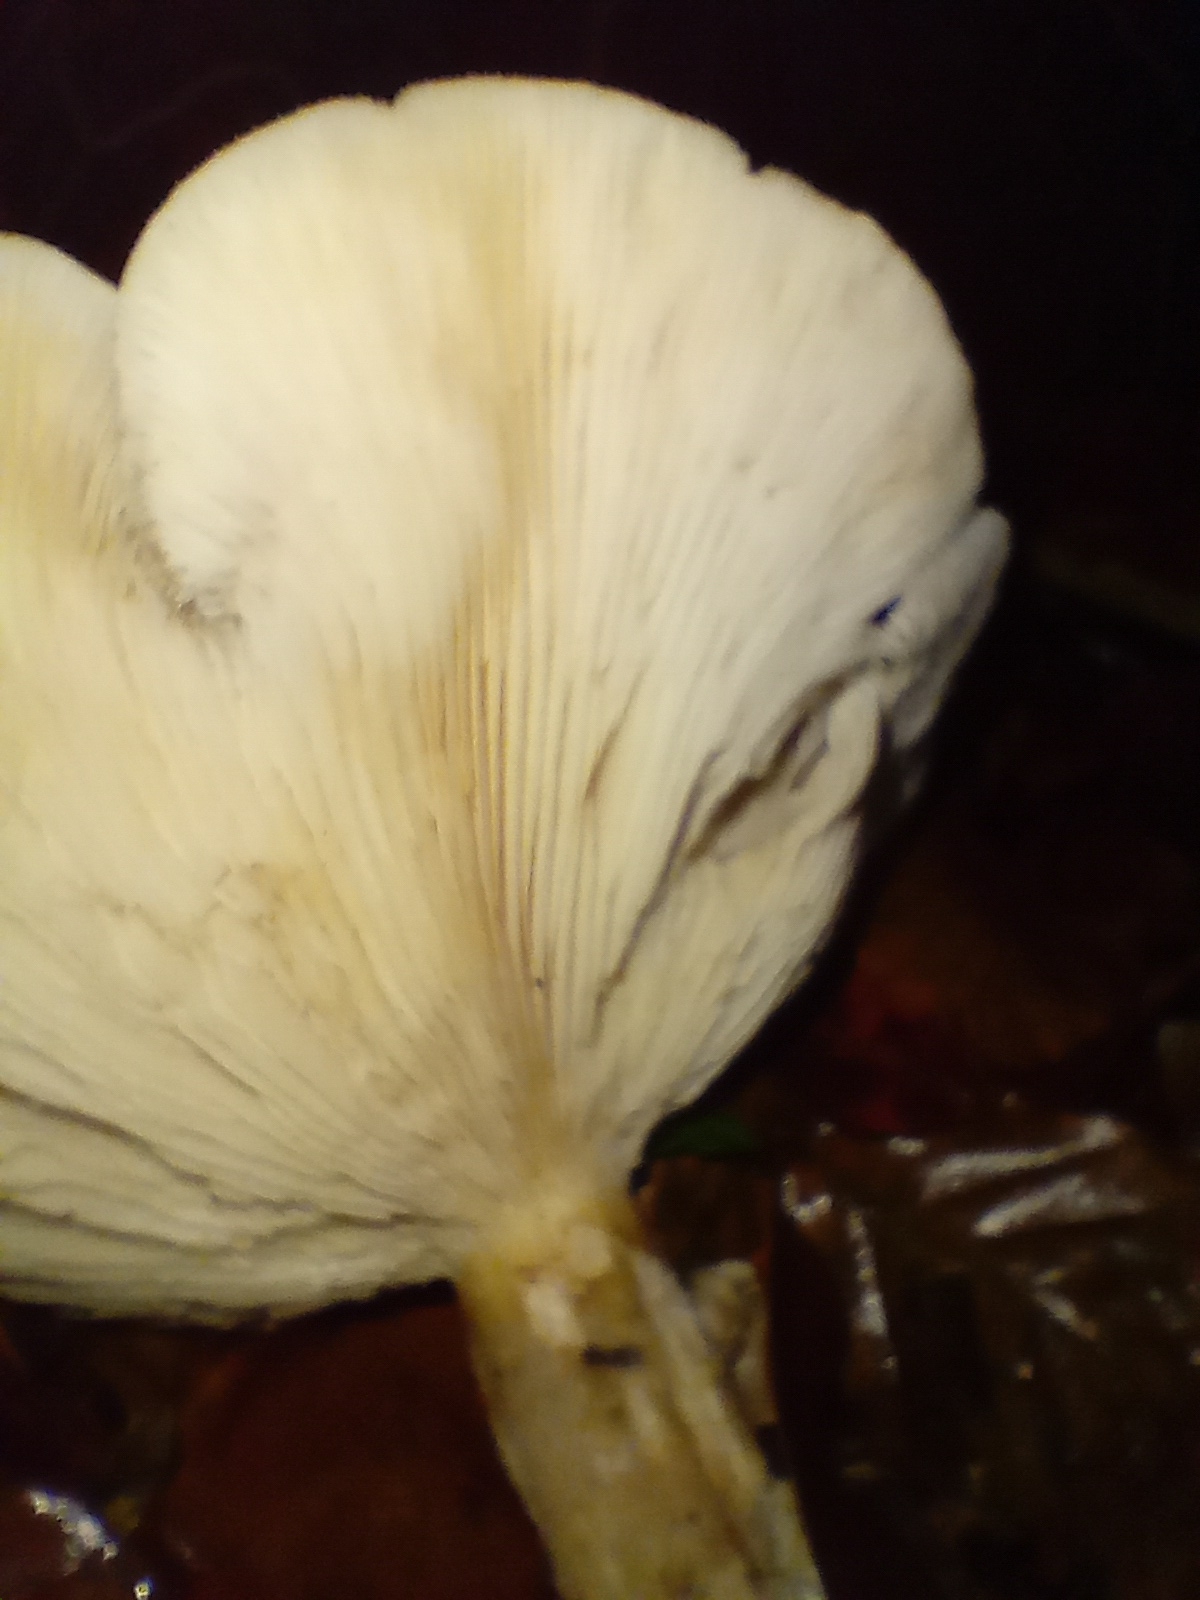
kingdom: Fungi
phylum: Basidiomycota
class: Agaricomycetes
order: Agaricales
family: Tricholomataceae
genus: Clitocybe
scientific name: Clitocybe nebularis
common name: Clouded agaric
